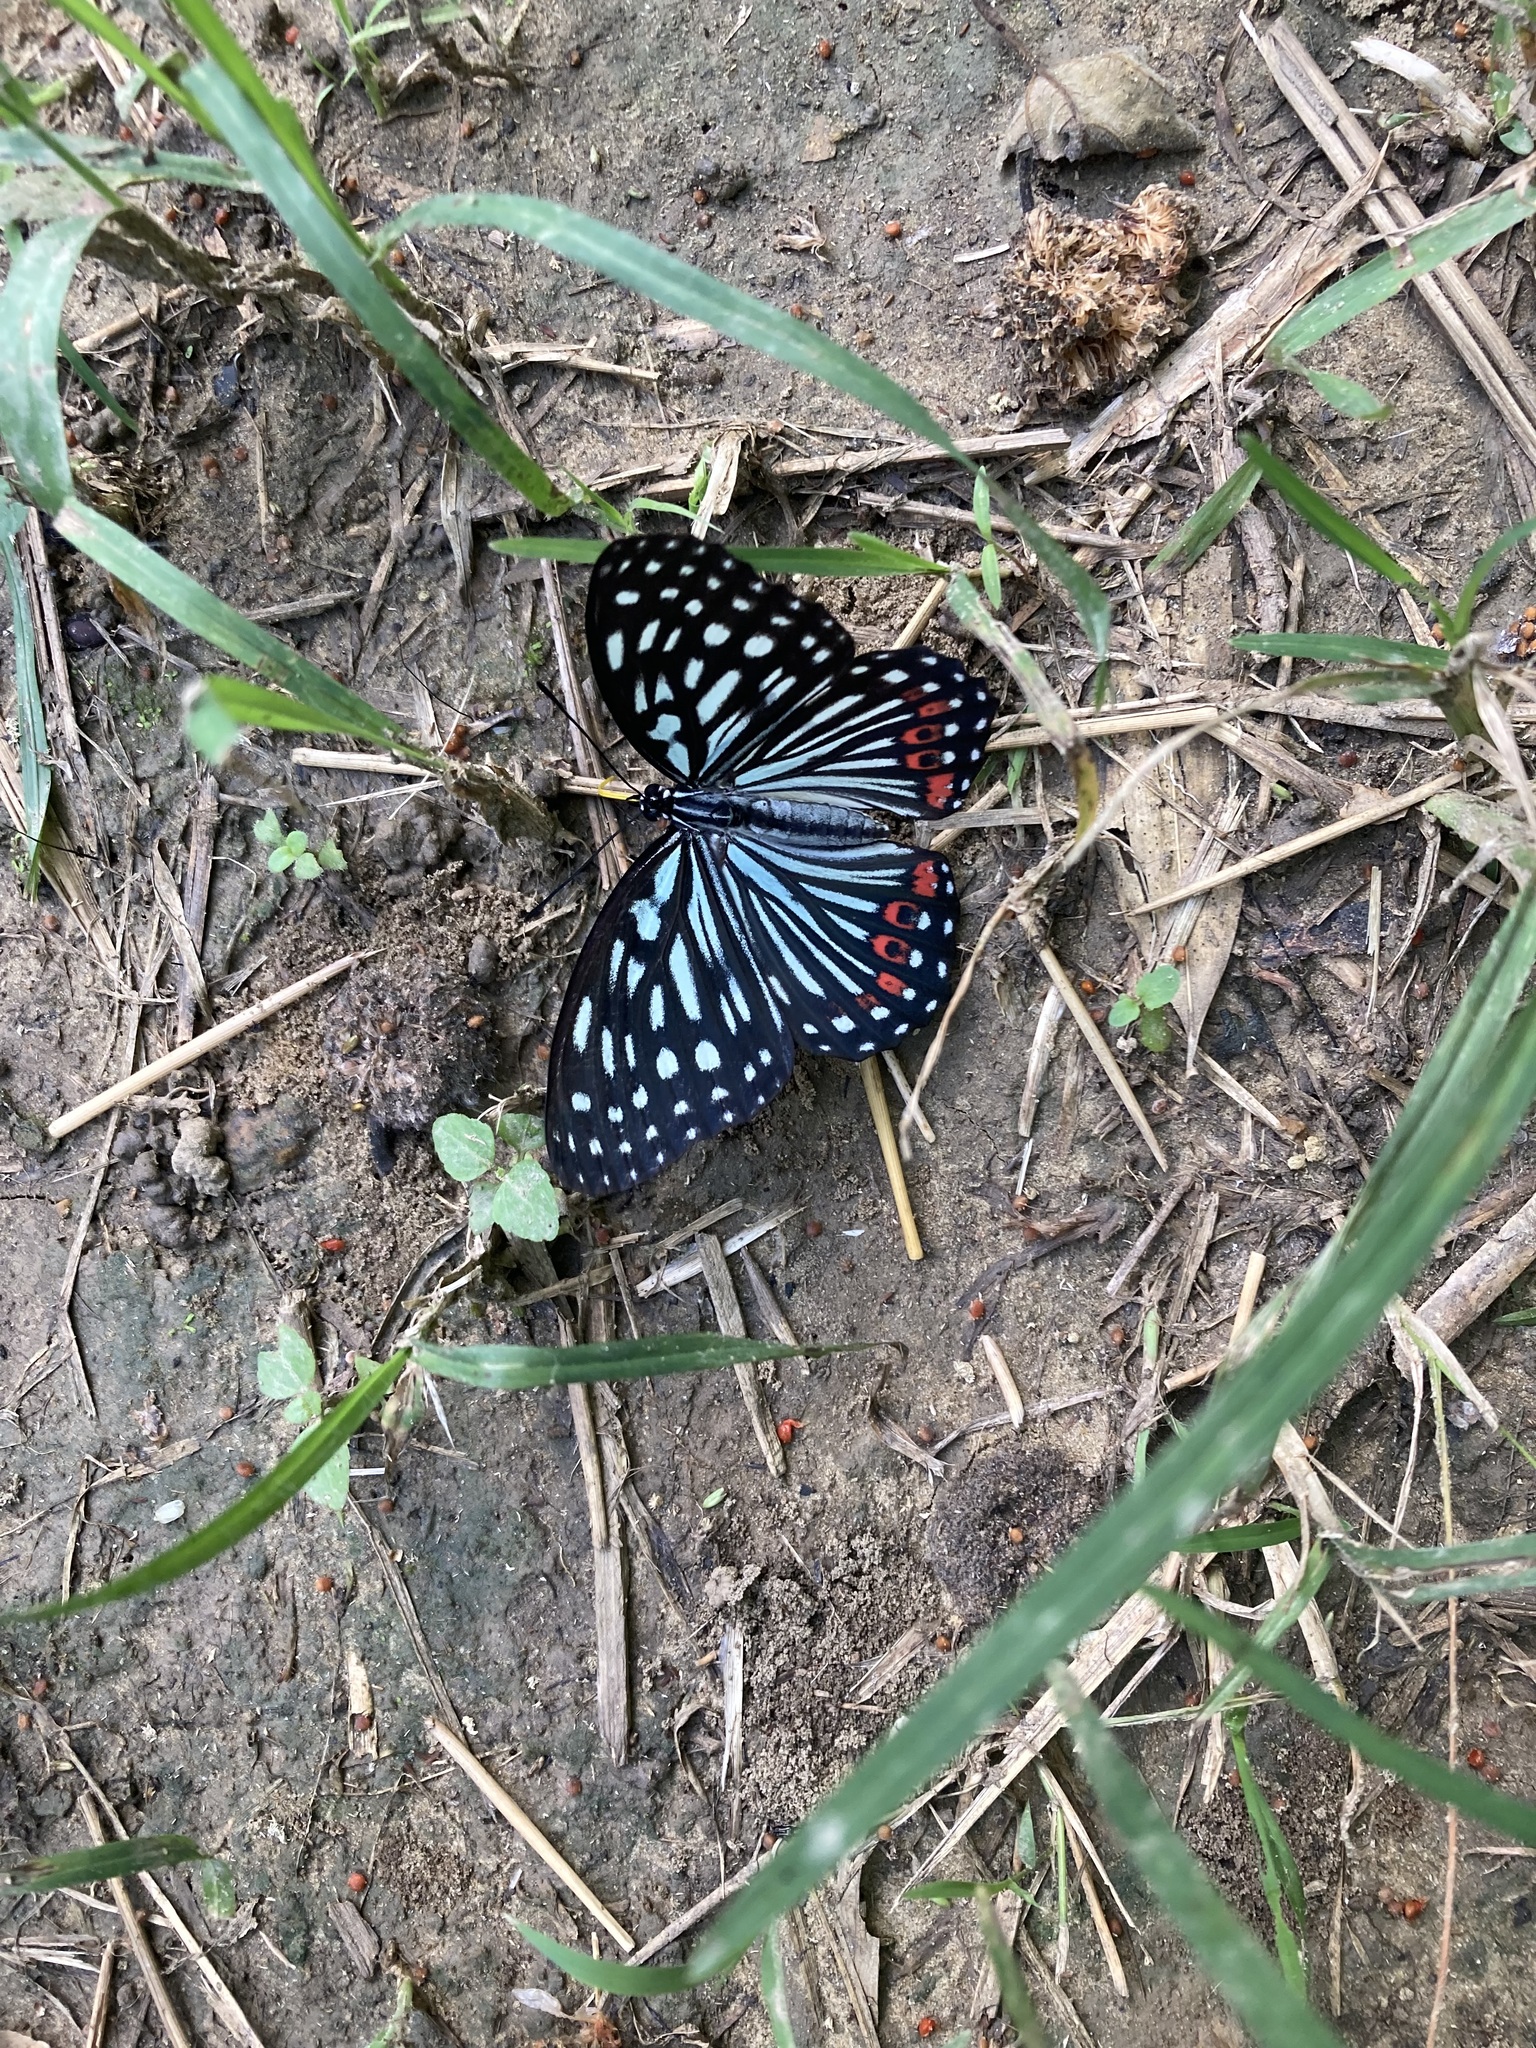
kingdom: Animalia
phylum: Arthropoda
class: Insecta
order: Lepidoptera
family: Nymphalidae
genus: Hestina
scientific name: Hestina assimilis
